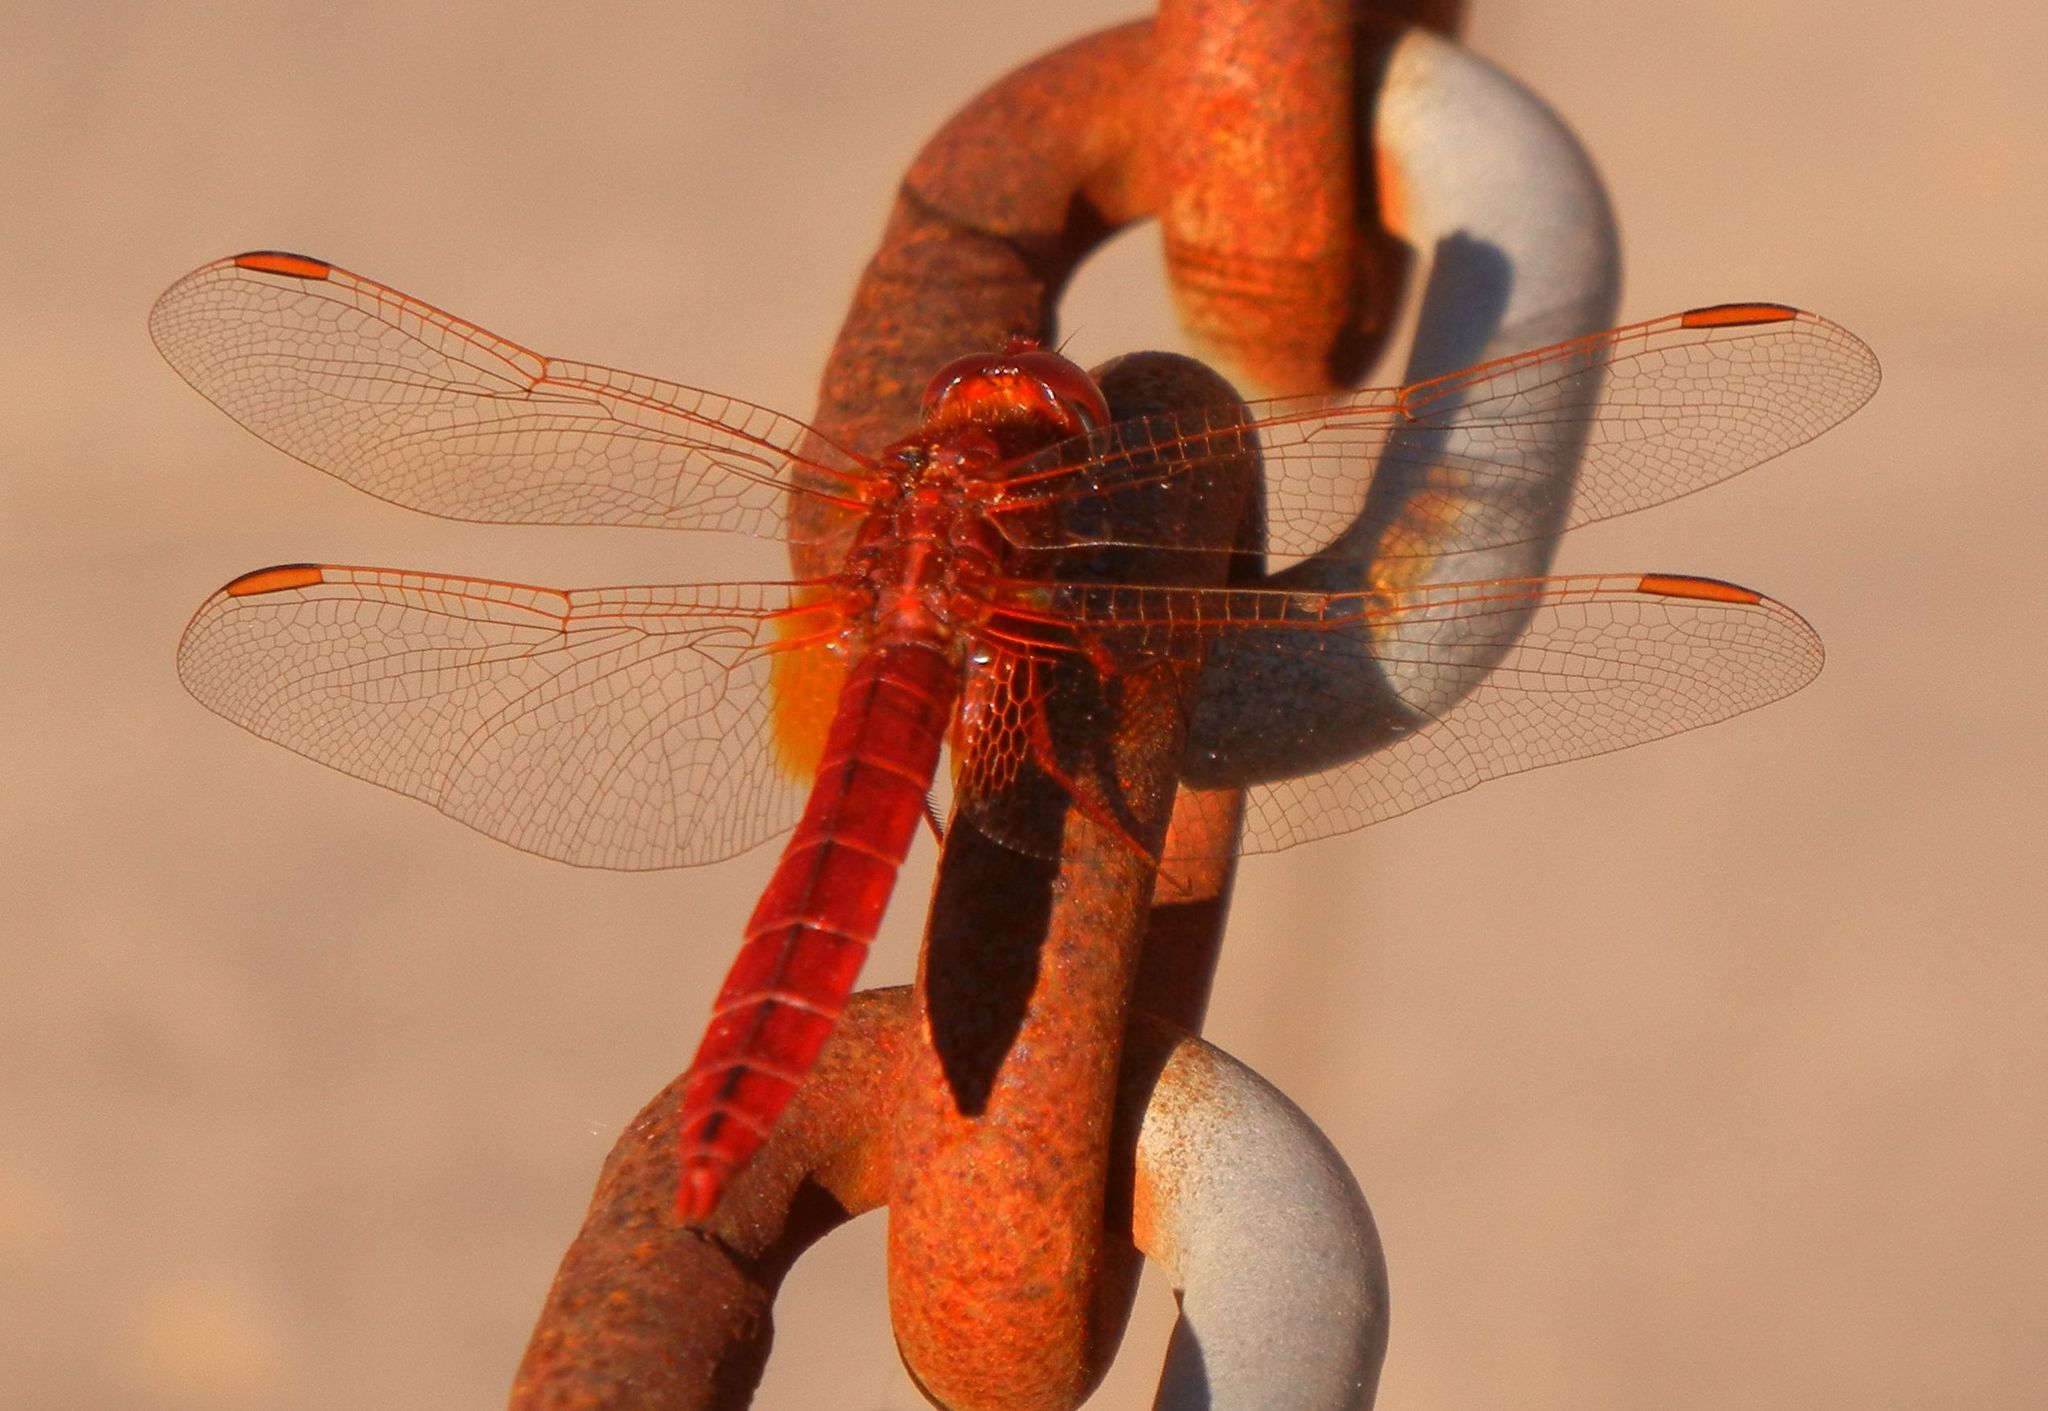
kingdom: Animalia
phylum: Arthropoda
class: Insecta
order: Odonata
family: Libellulidae
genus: Crocothemis
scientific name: Crocothemis erythraea
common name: Scarlet dragonfly
